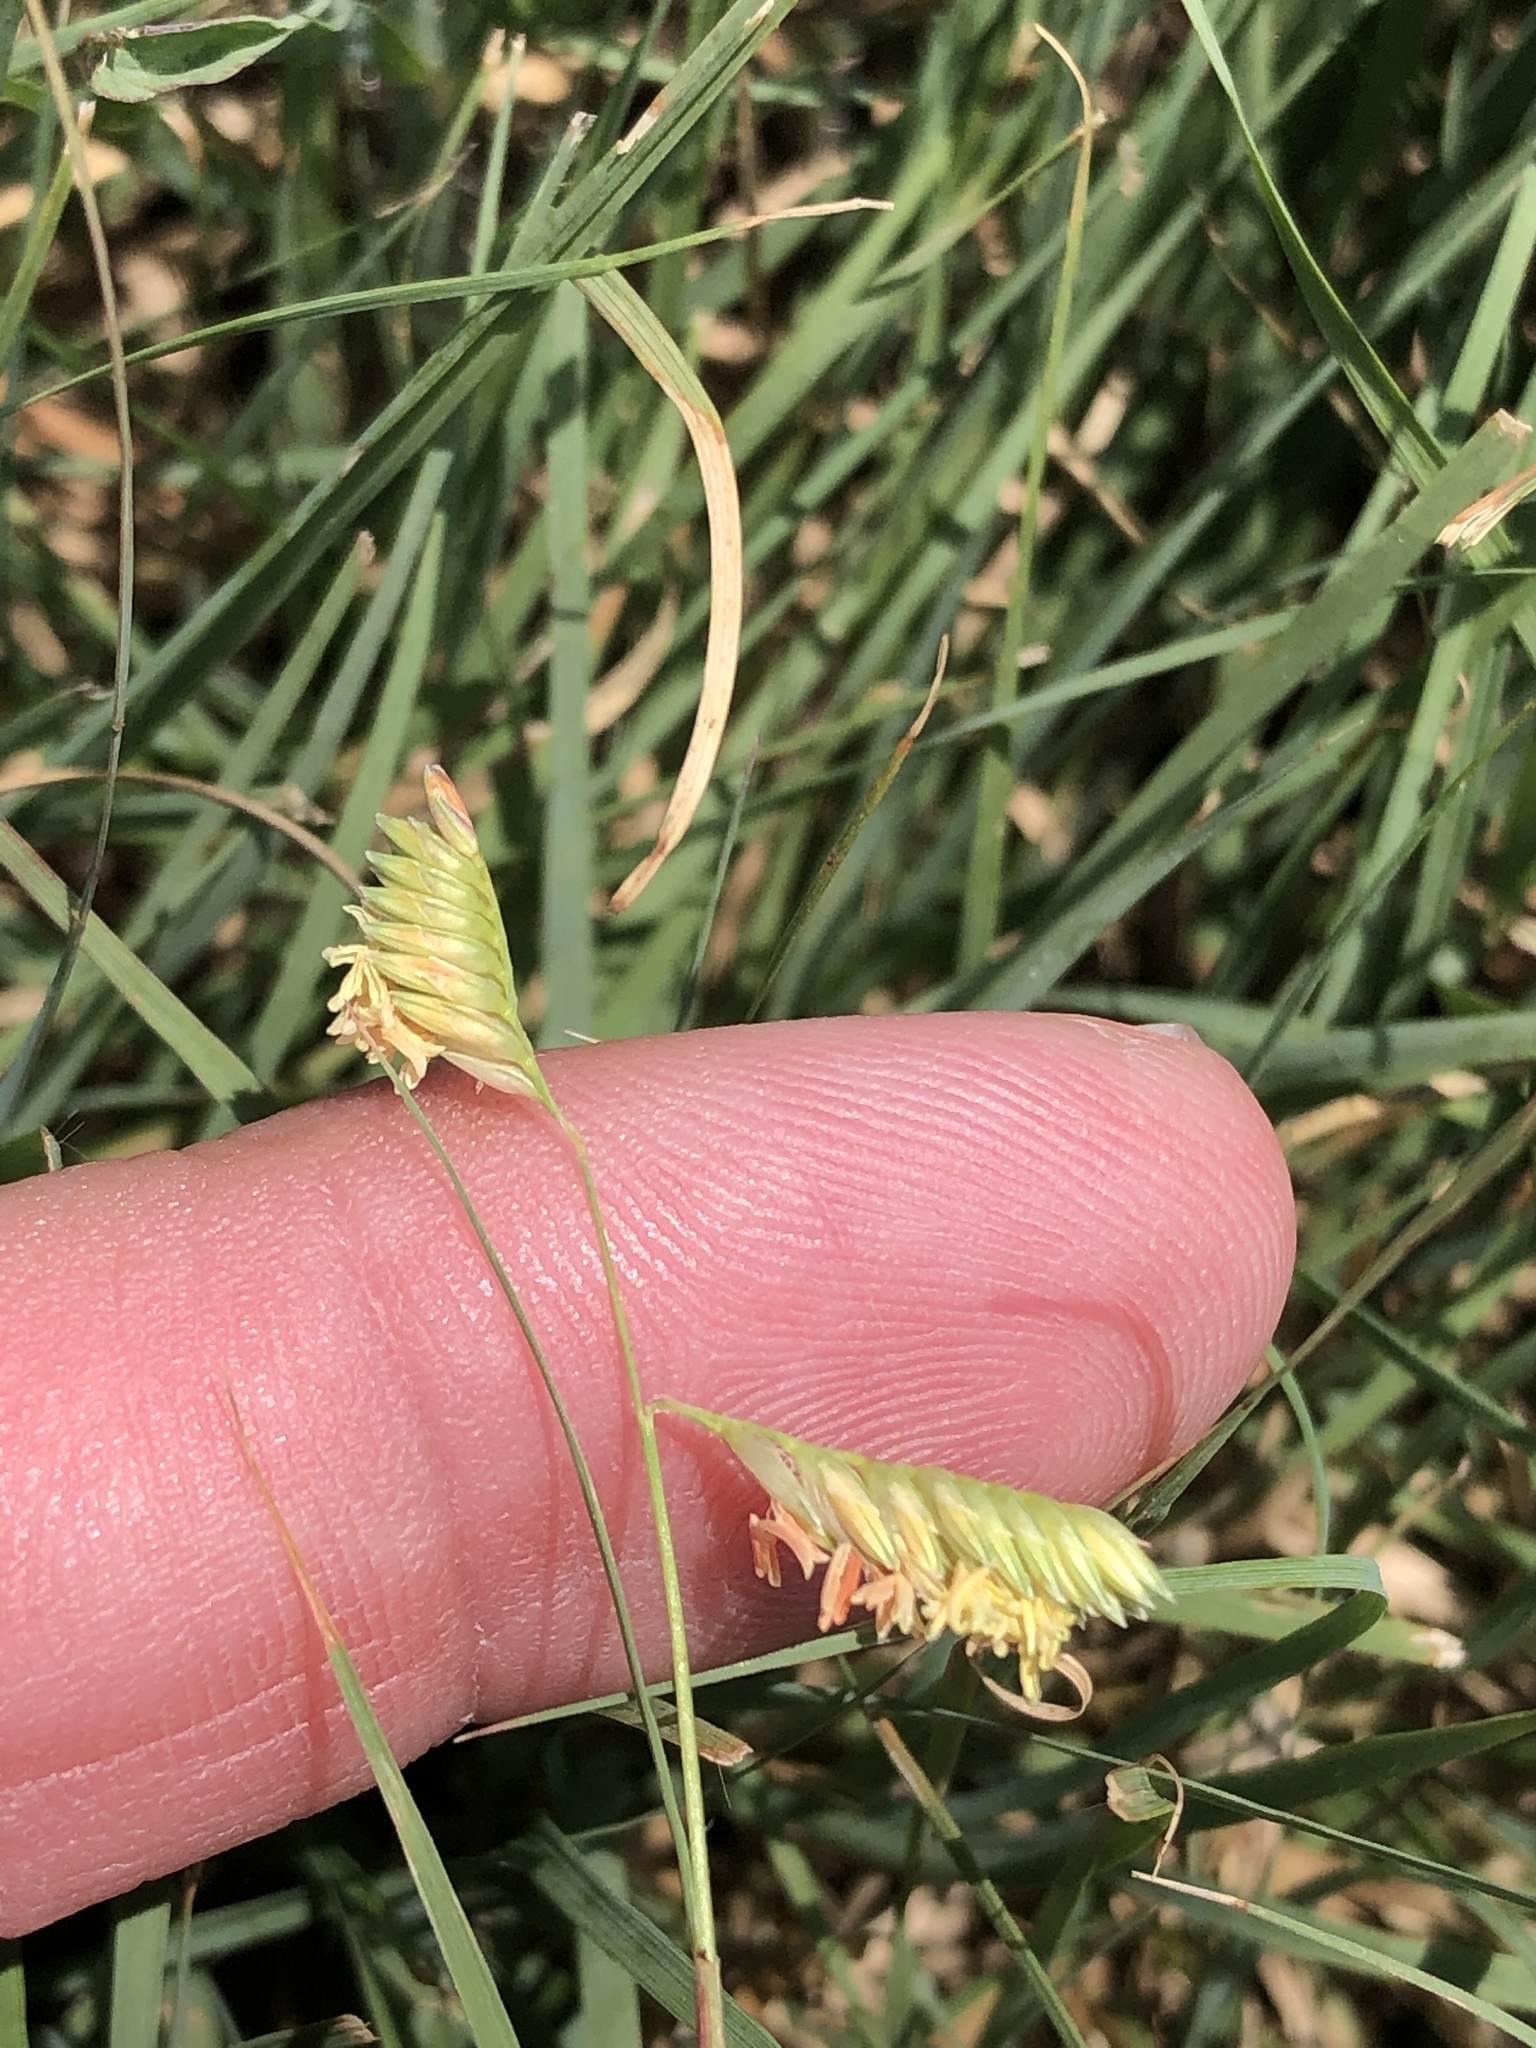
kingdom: Plantae
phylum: Tracheophyta
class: Liliopsida
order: Poales
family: Poaceae
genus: Bouteloua
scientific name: Bouteloua dactyloides
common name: Buffalo grass
